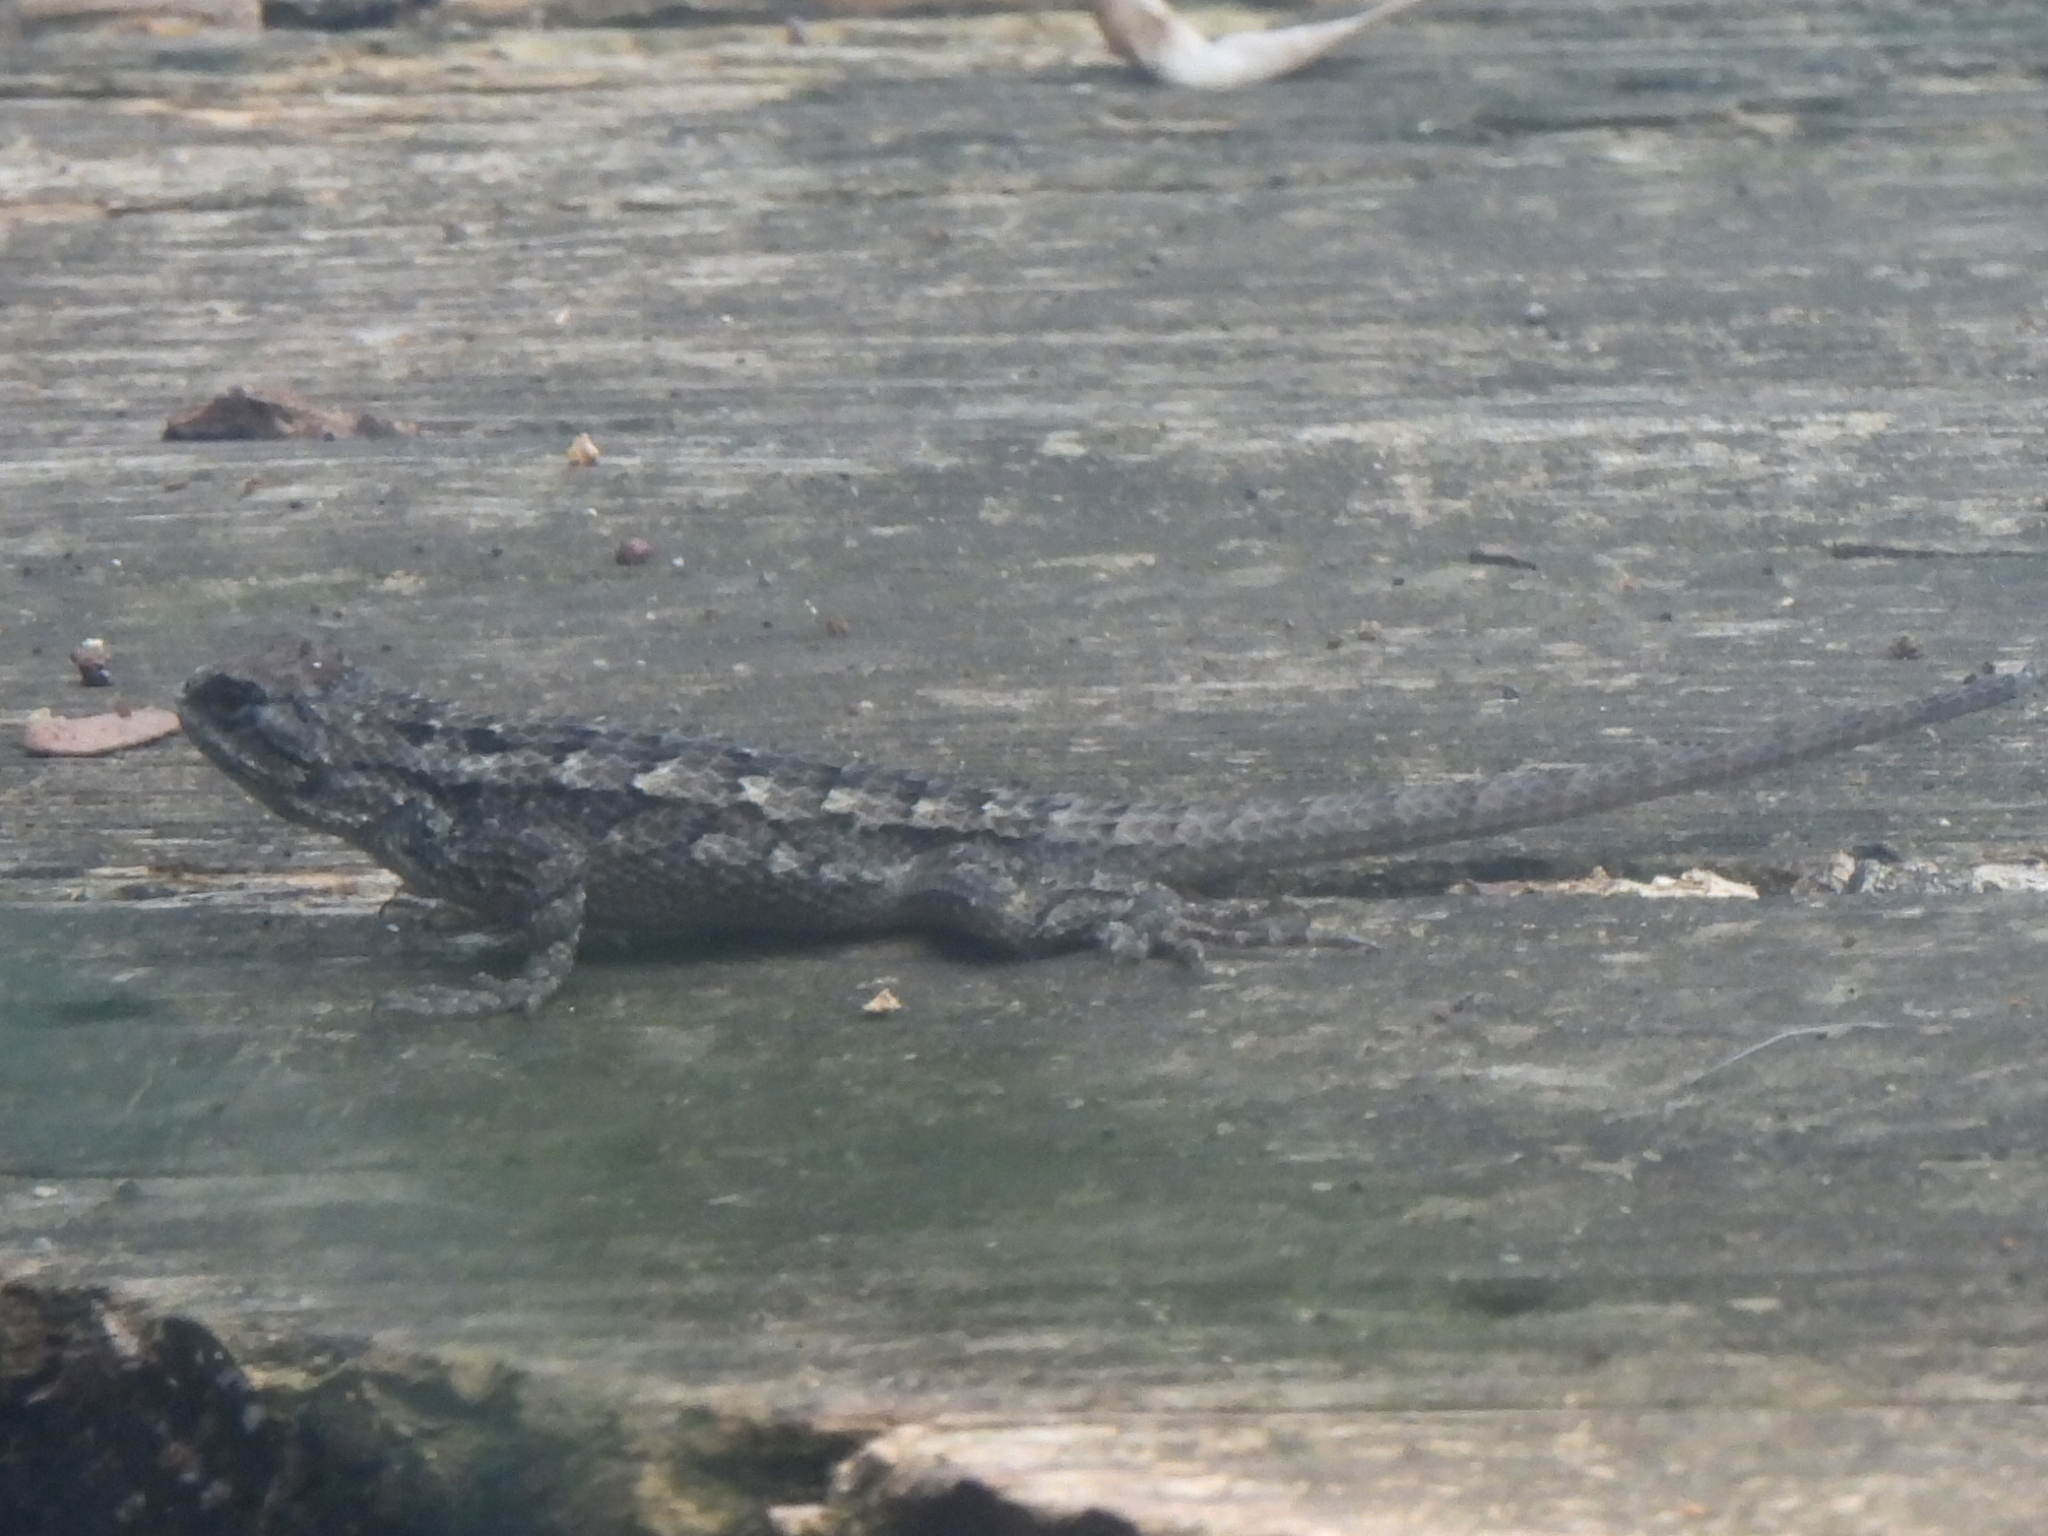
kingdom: Animalia
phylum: Chordata
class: Squamata
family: Phrynosomatidae
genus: Sceloporus
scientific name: Sceloporus olivaceus
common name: Texas spiny lizard
